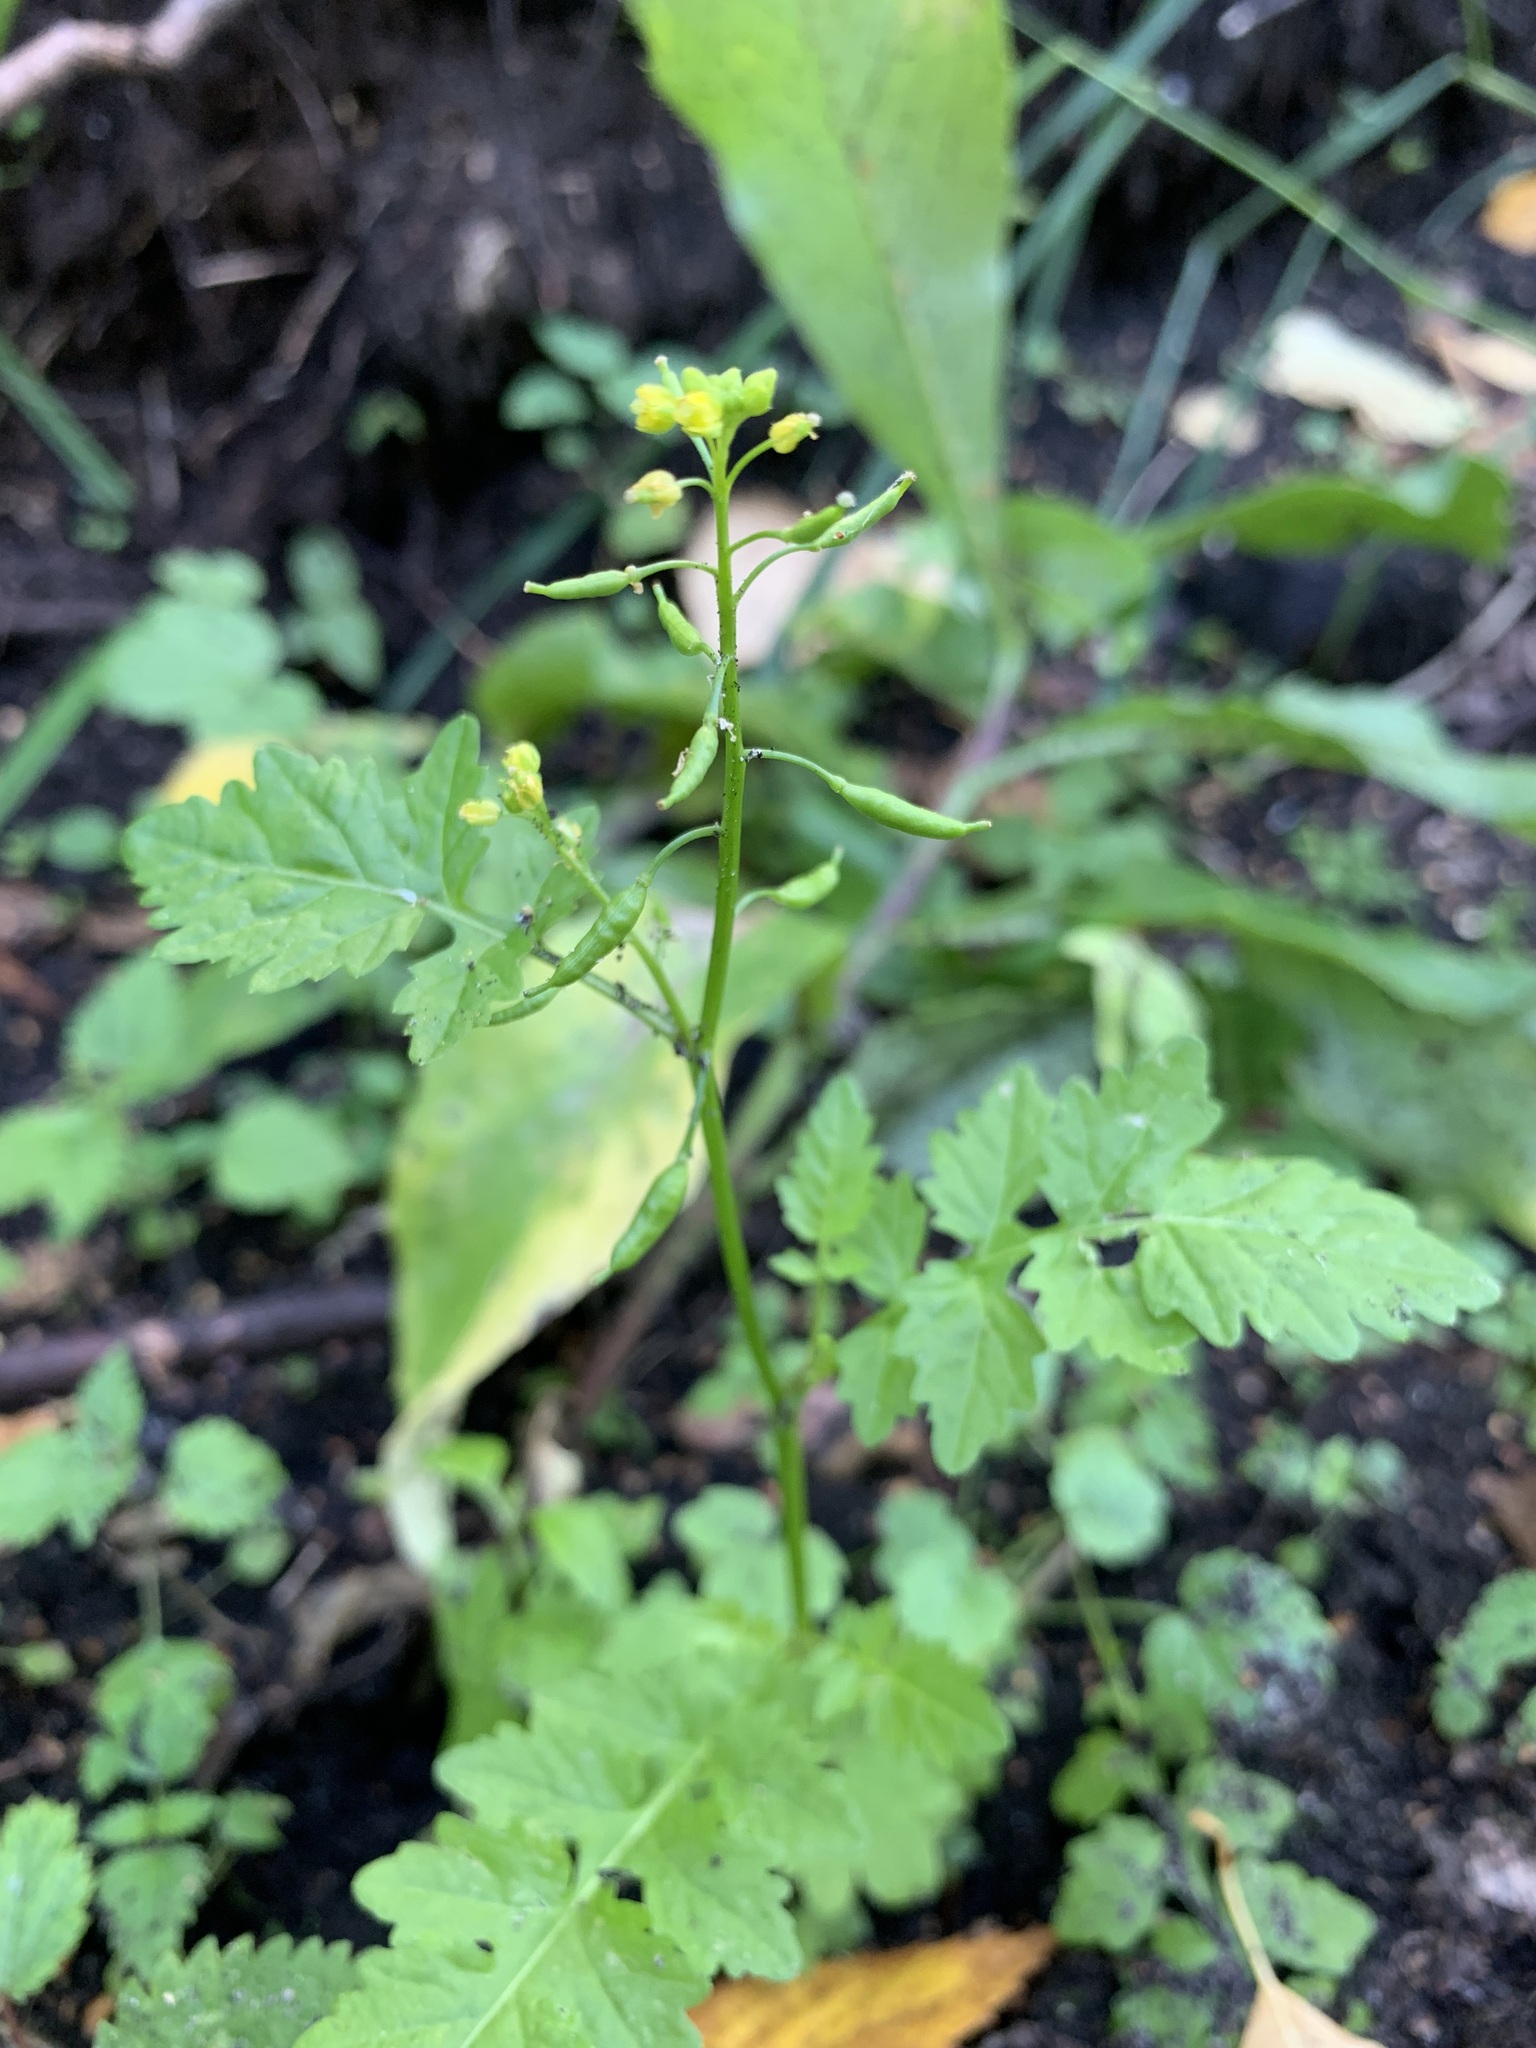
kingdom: Plantae
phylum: Tracheophyta
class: Magnoliopsida
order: Brassicales
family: Brassicaceae
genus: Rorippa
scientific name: Rorippa palustris
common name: Marsh yellow-cress
